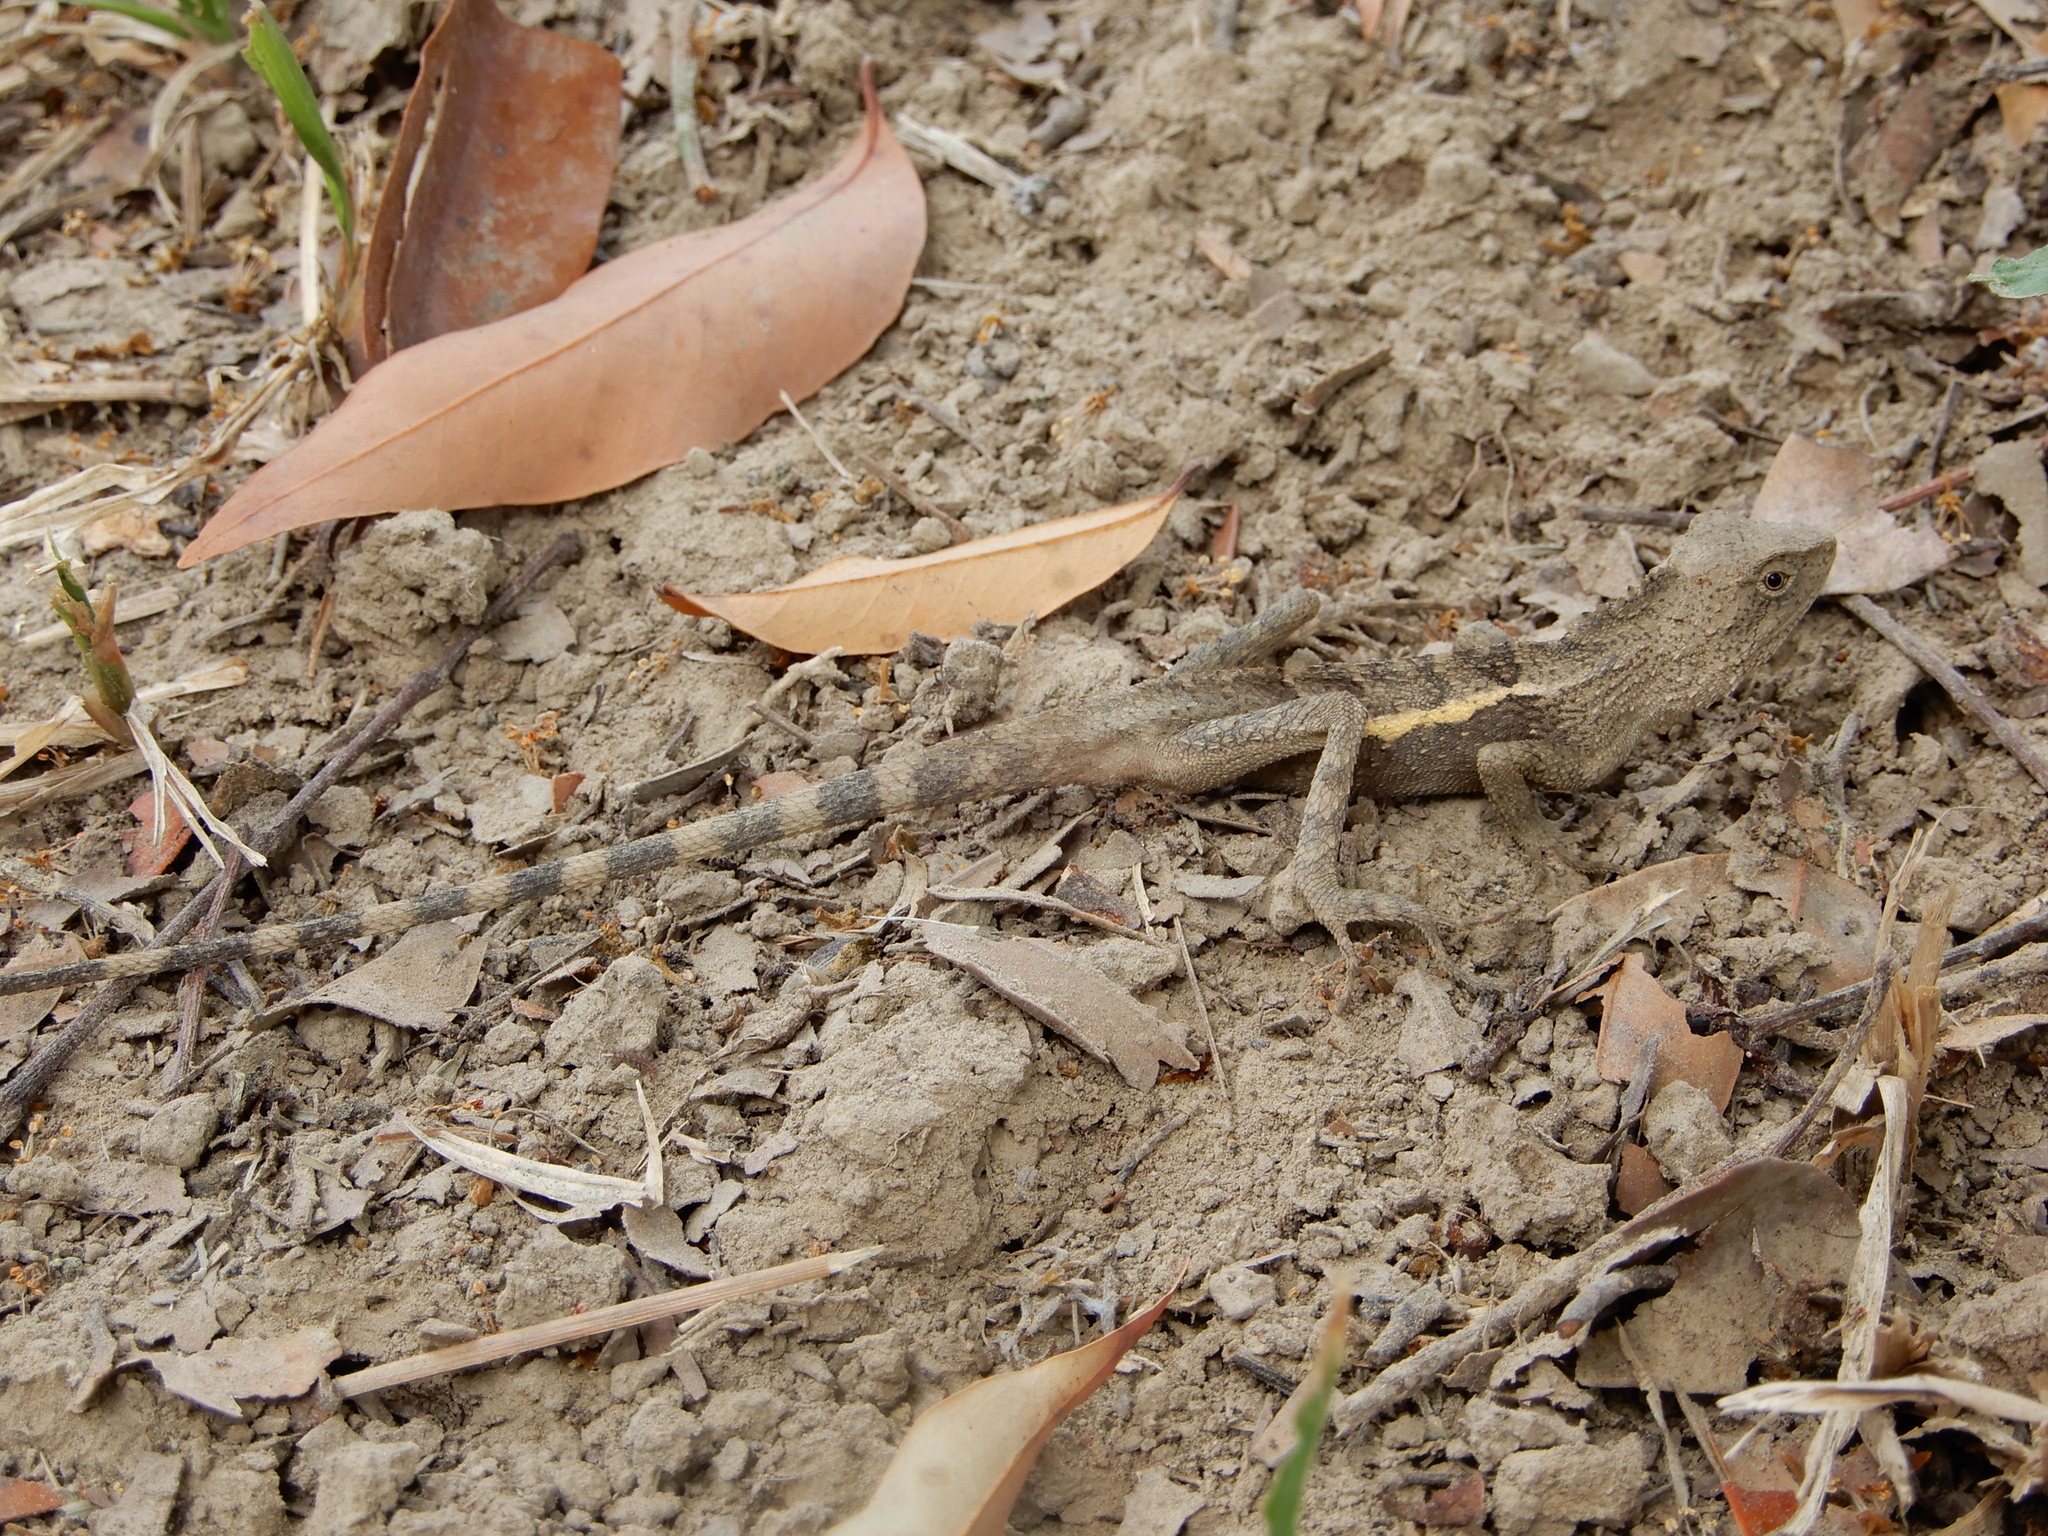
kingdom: Animalia
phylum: Chordata
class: Squamata
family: Agamidae
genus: Diploderma
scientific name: Diploderma swinhonis
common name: Taiwan japalure
